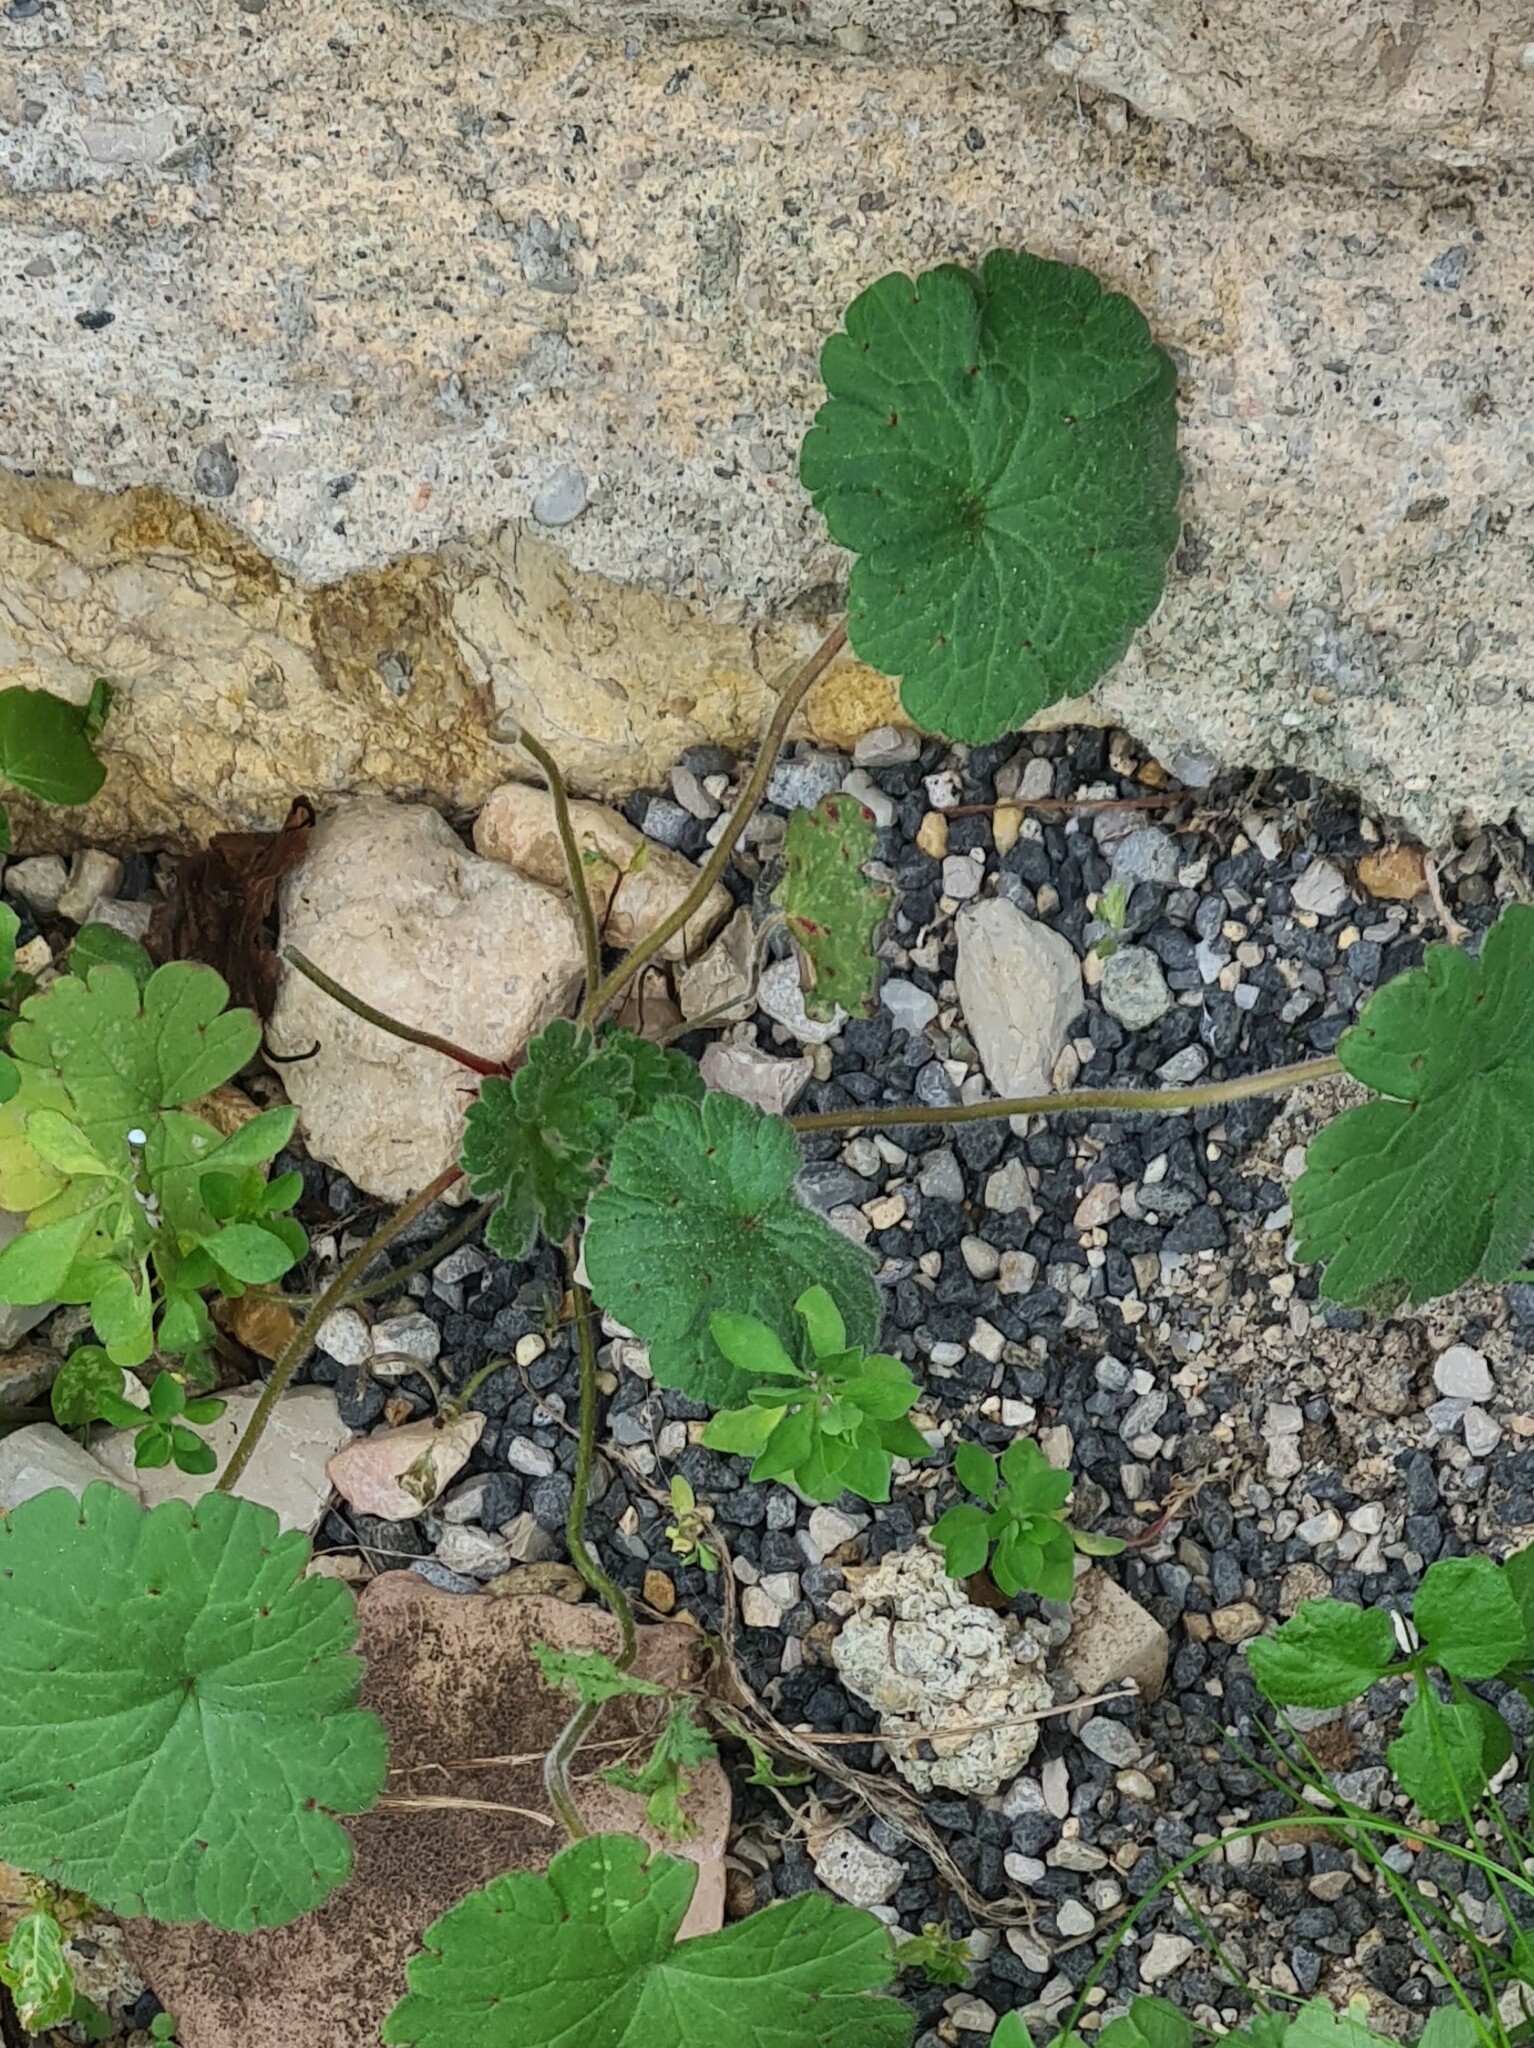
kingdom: Plantae
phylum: Tracheophyta
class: Magnoliopsida
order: Geraniales
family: Geraniaceae
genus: Geranium
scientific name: Geranium rotundifolium
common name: Round-leaved crane's-bill
